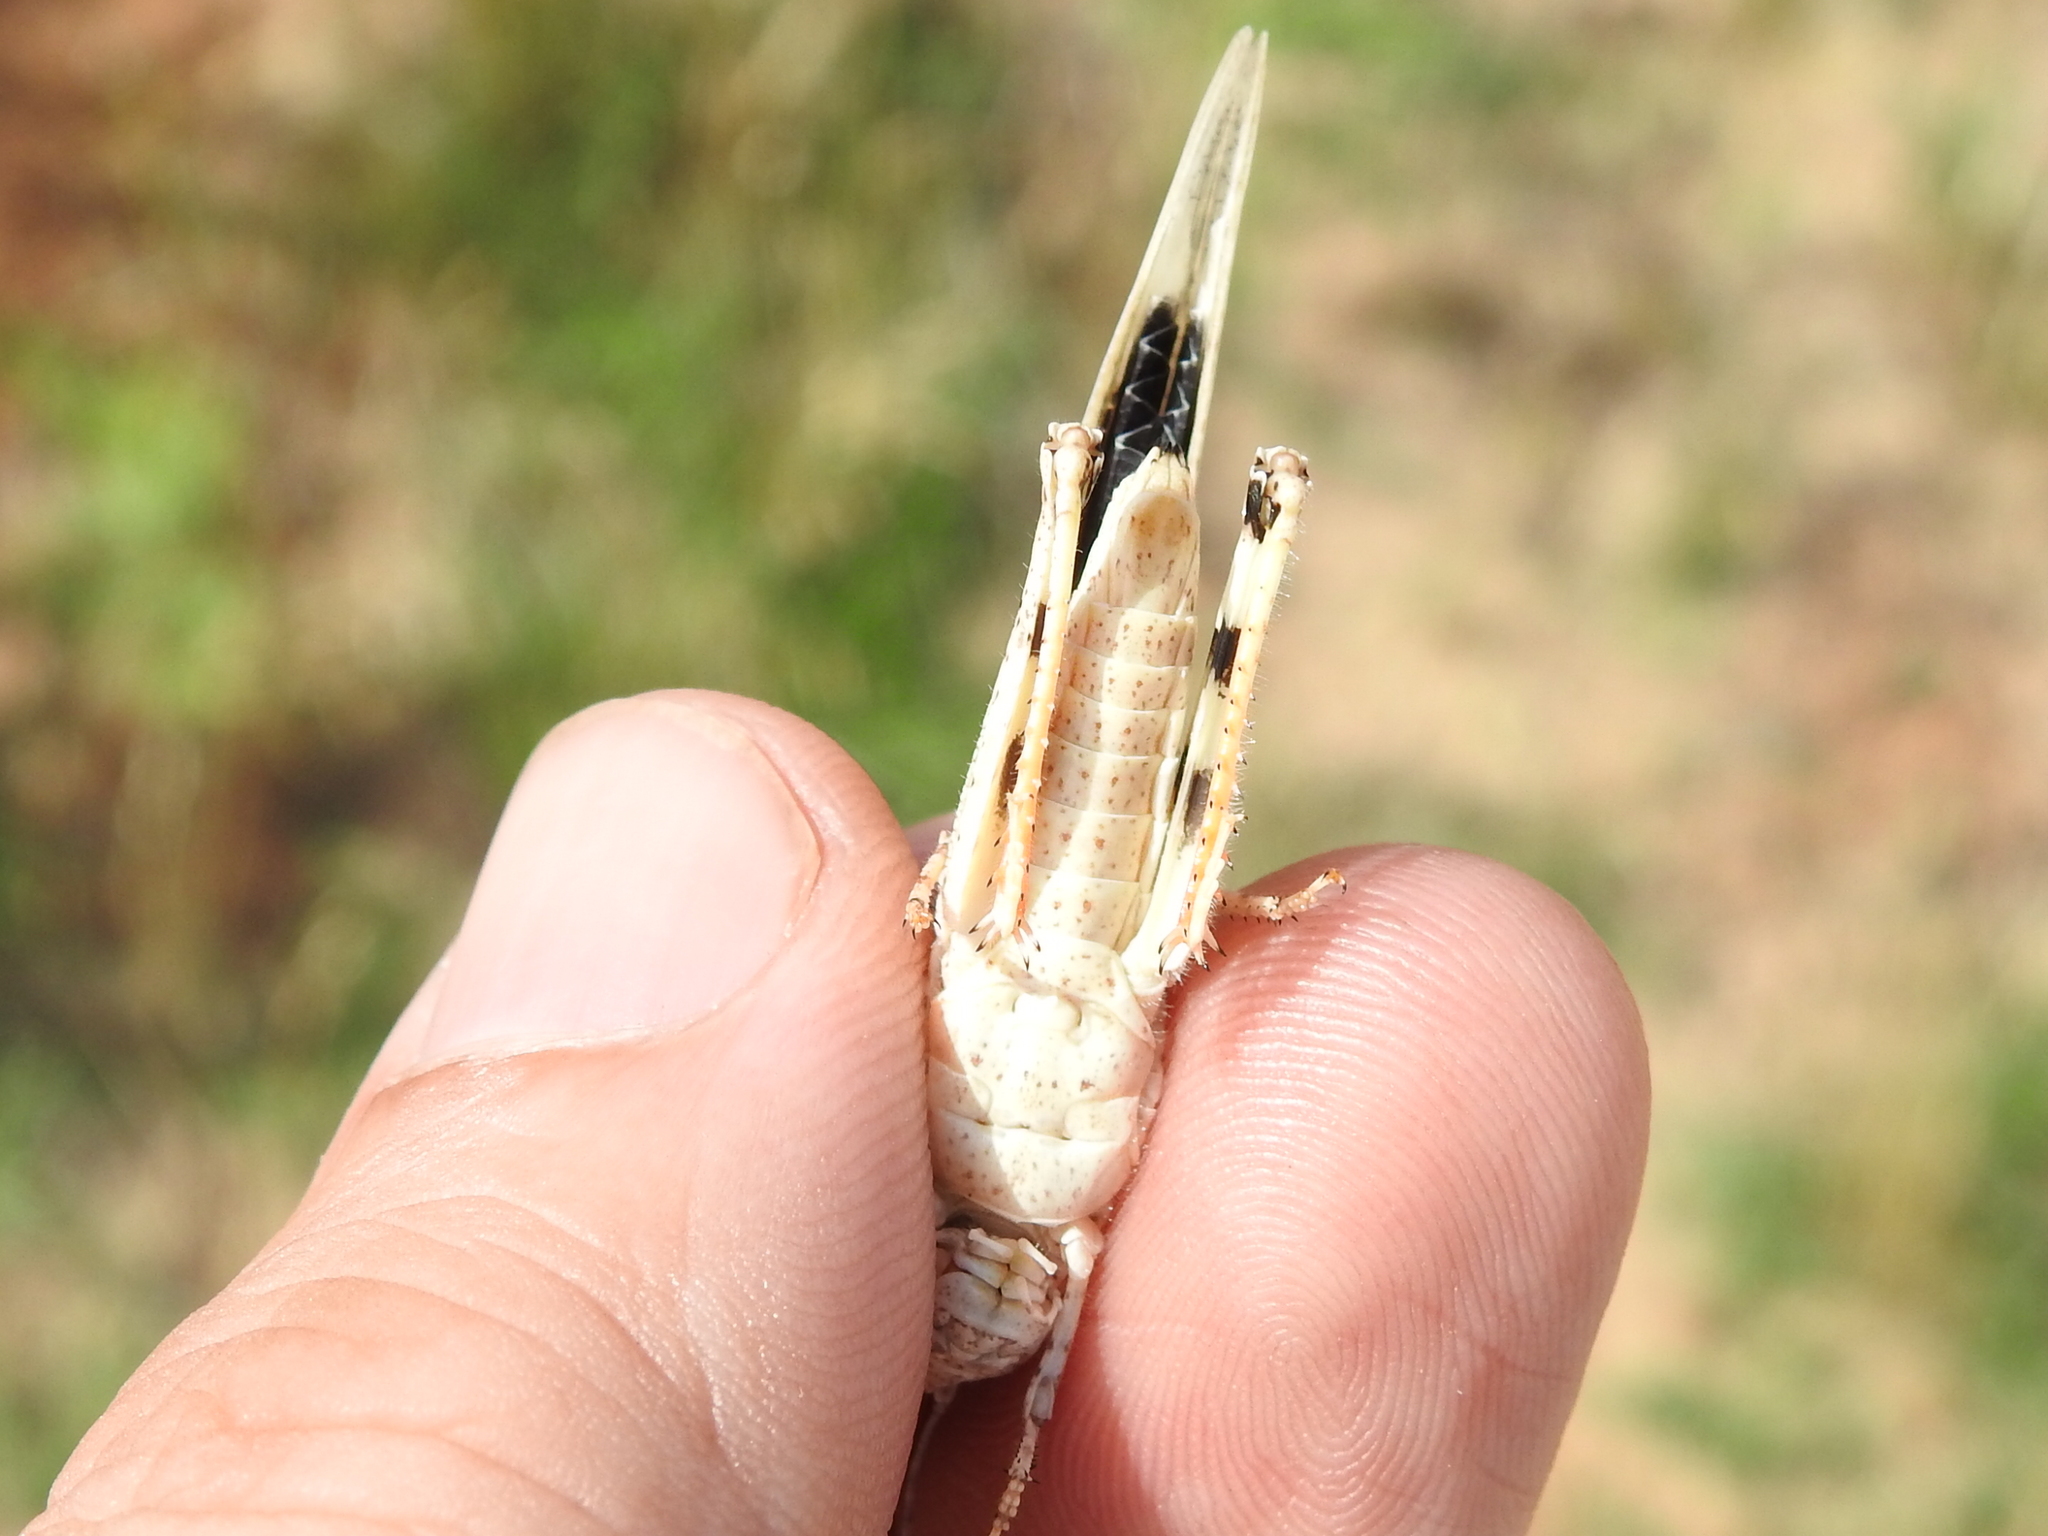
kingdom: Animalia
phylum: Arthropoda
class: Insecta
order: Orthoptera
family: Acrididae
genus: Trimerotropis
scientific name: Trimerotropis maritima
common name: Seaside locust
